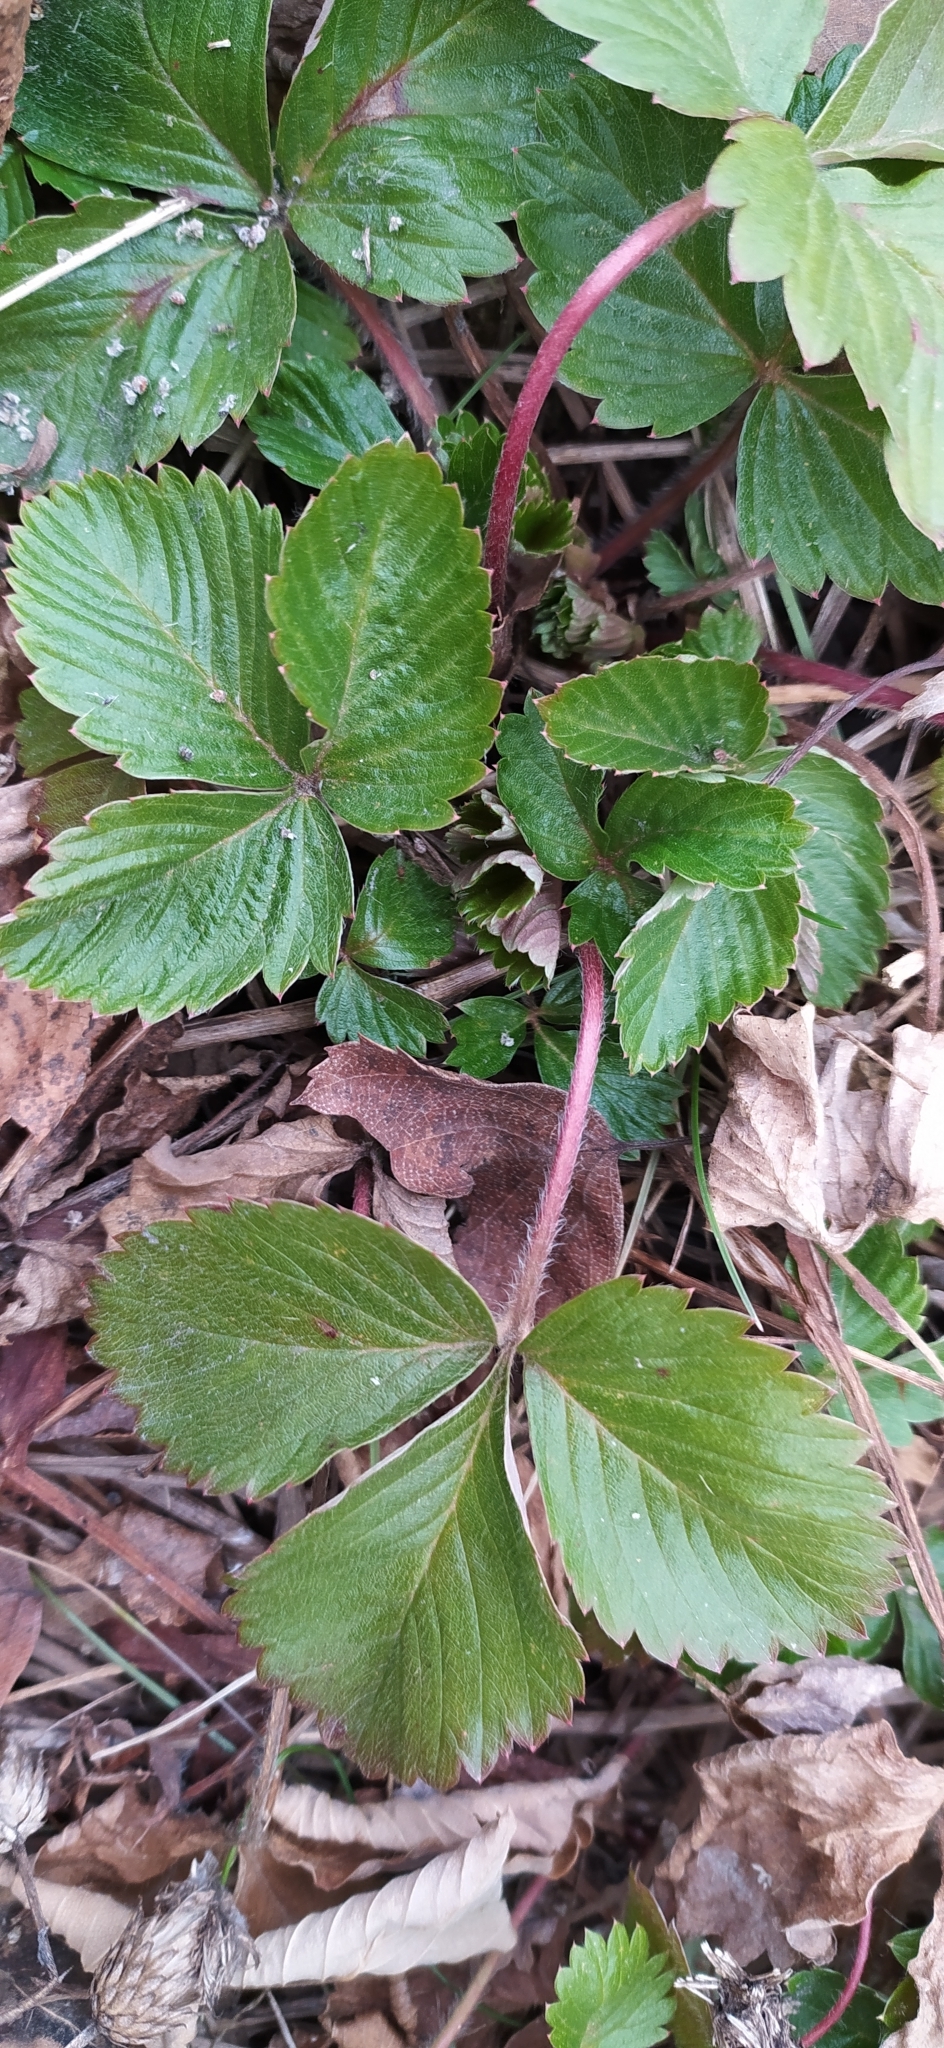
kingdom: Plantae
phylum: Tracheophyta
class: Magnoliopsida
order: Rosales
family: Rosaceae
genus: Fragaria
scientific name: Fragaria vesca
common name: Wild strawberry
